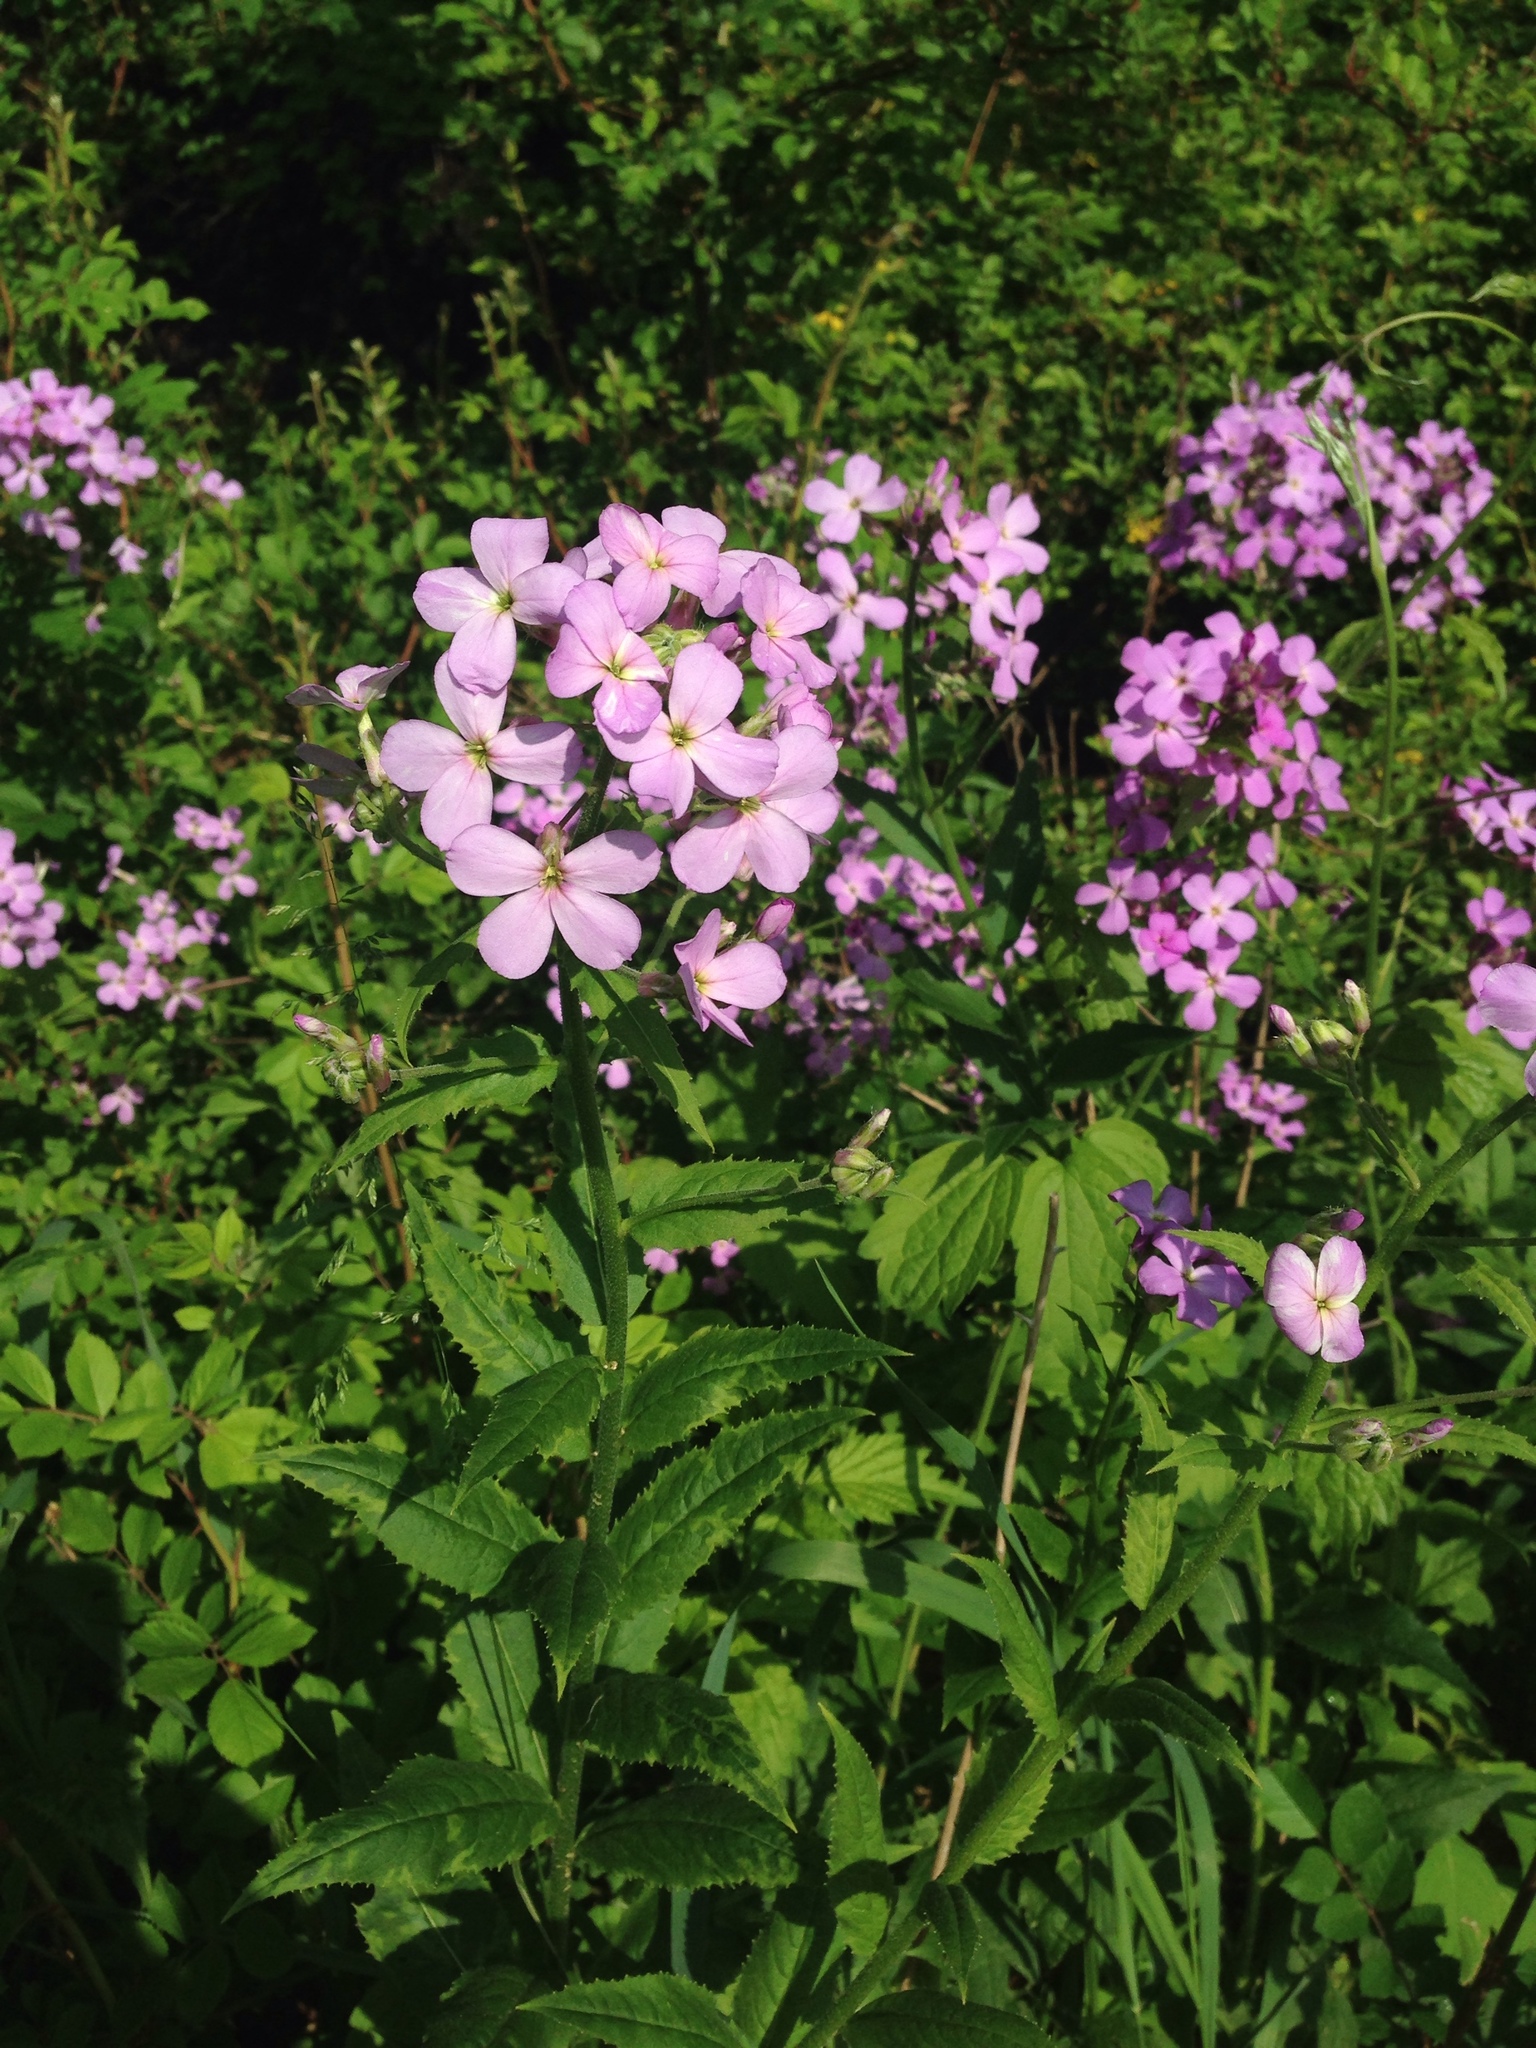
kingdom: Plantae
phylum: Tracheophyta
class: Magnoliopsida
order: Brassicales
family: Brassicaceae
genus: Hesperis
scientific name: Hesperis matronalis
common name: Dame's-violet
